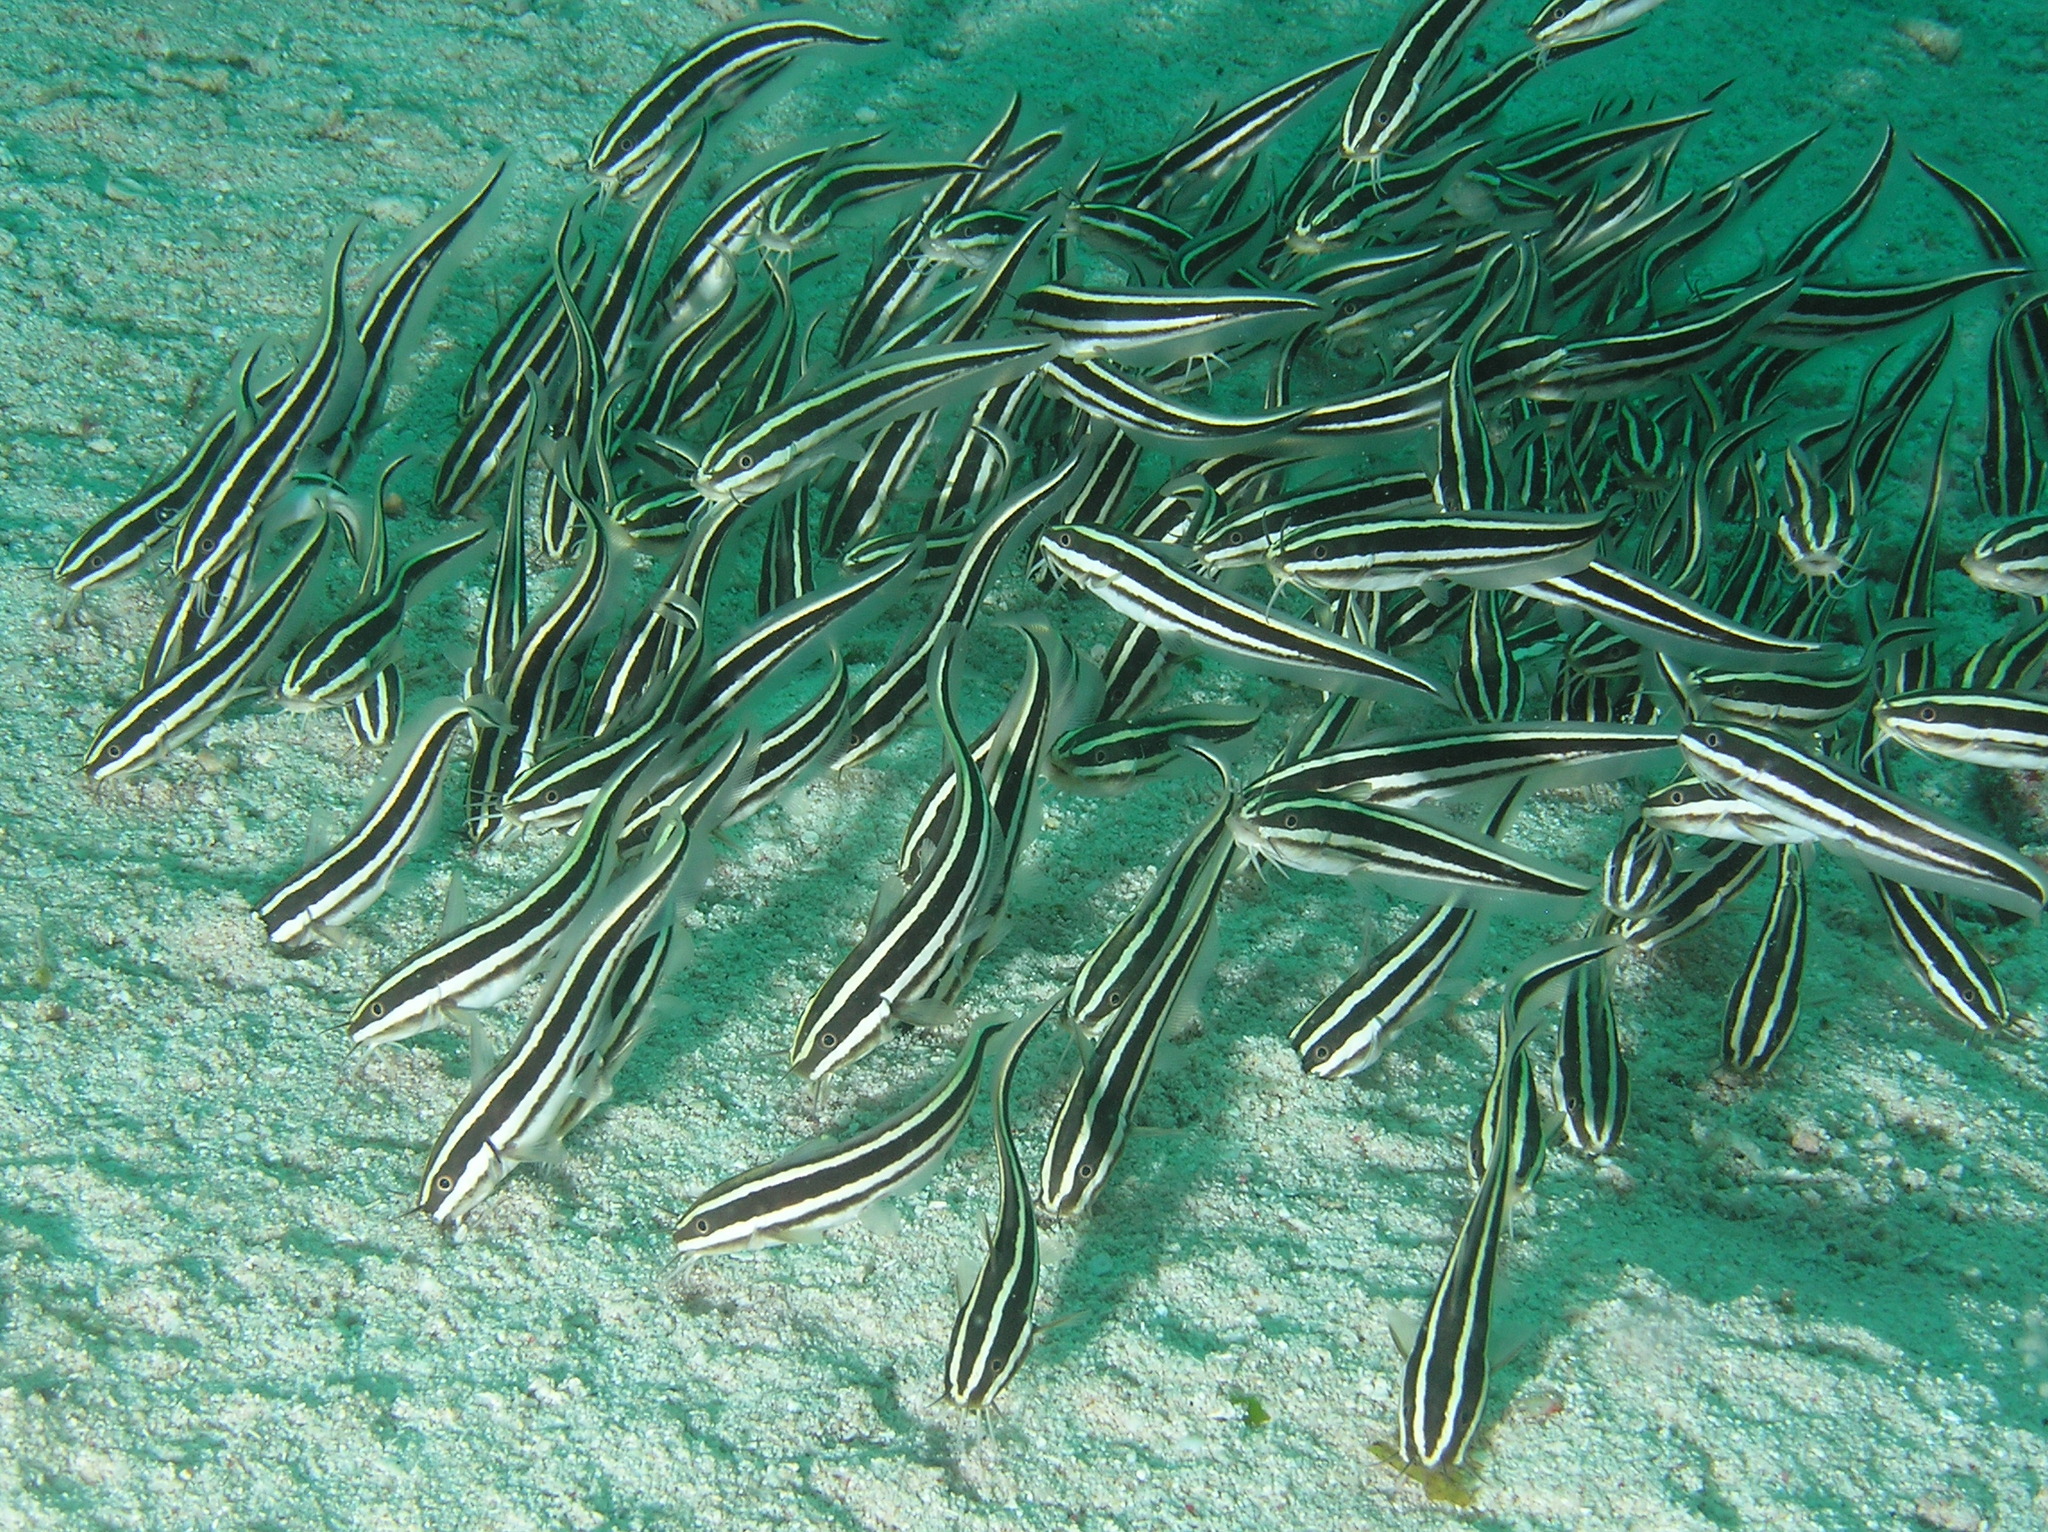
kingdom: Animalia
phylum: Chordata
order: Siluriformes
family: Plotosidae
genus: Plotosus
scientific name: Plotosus lineatus
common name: Striped eel catfish
